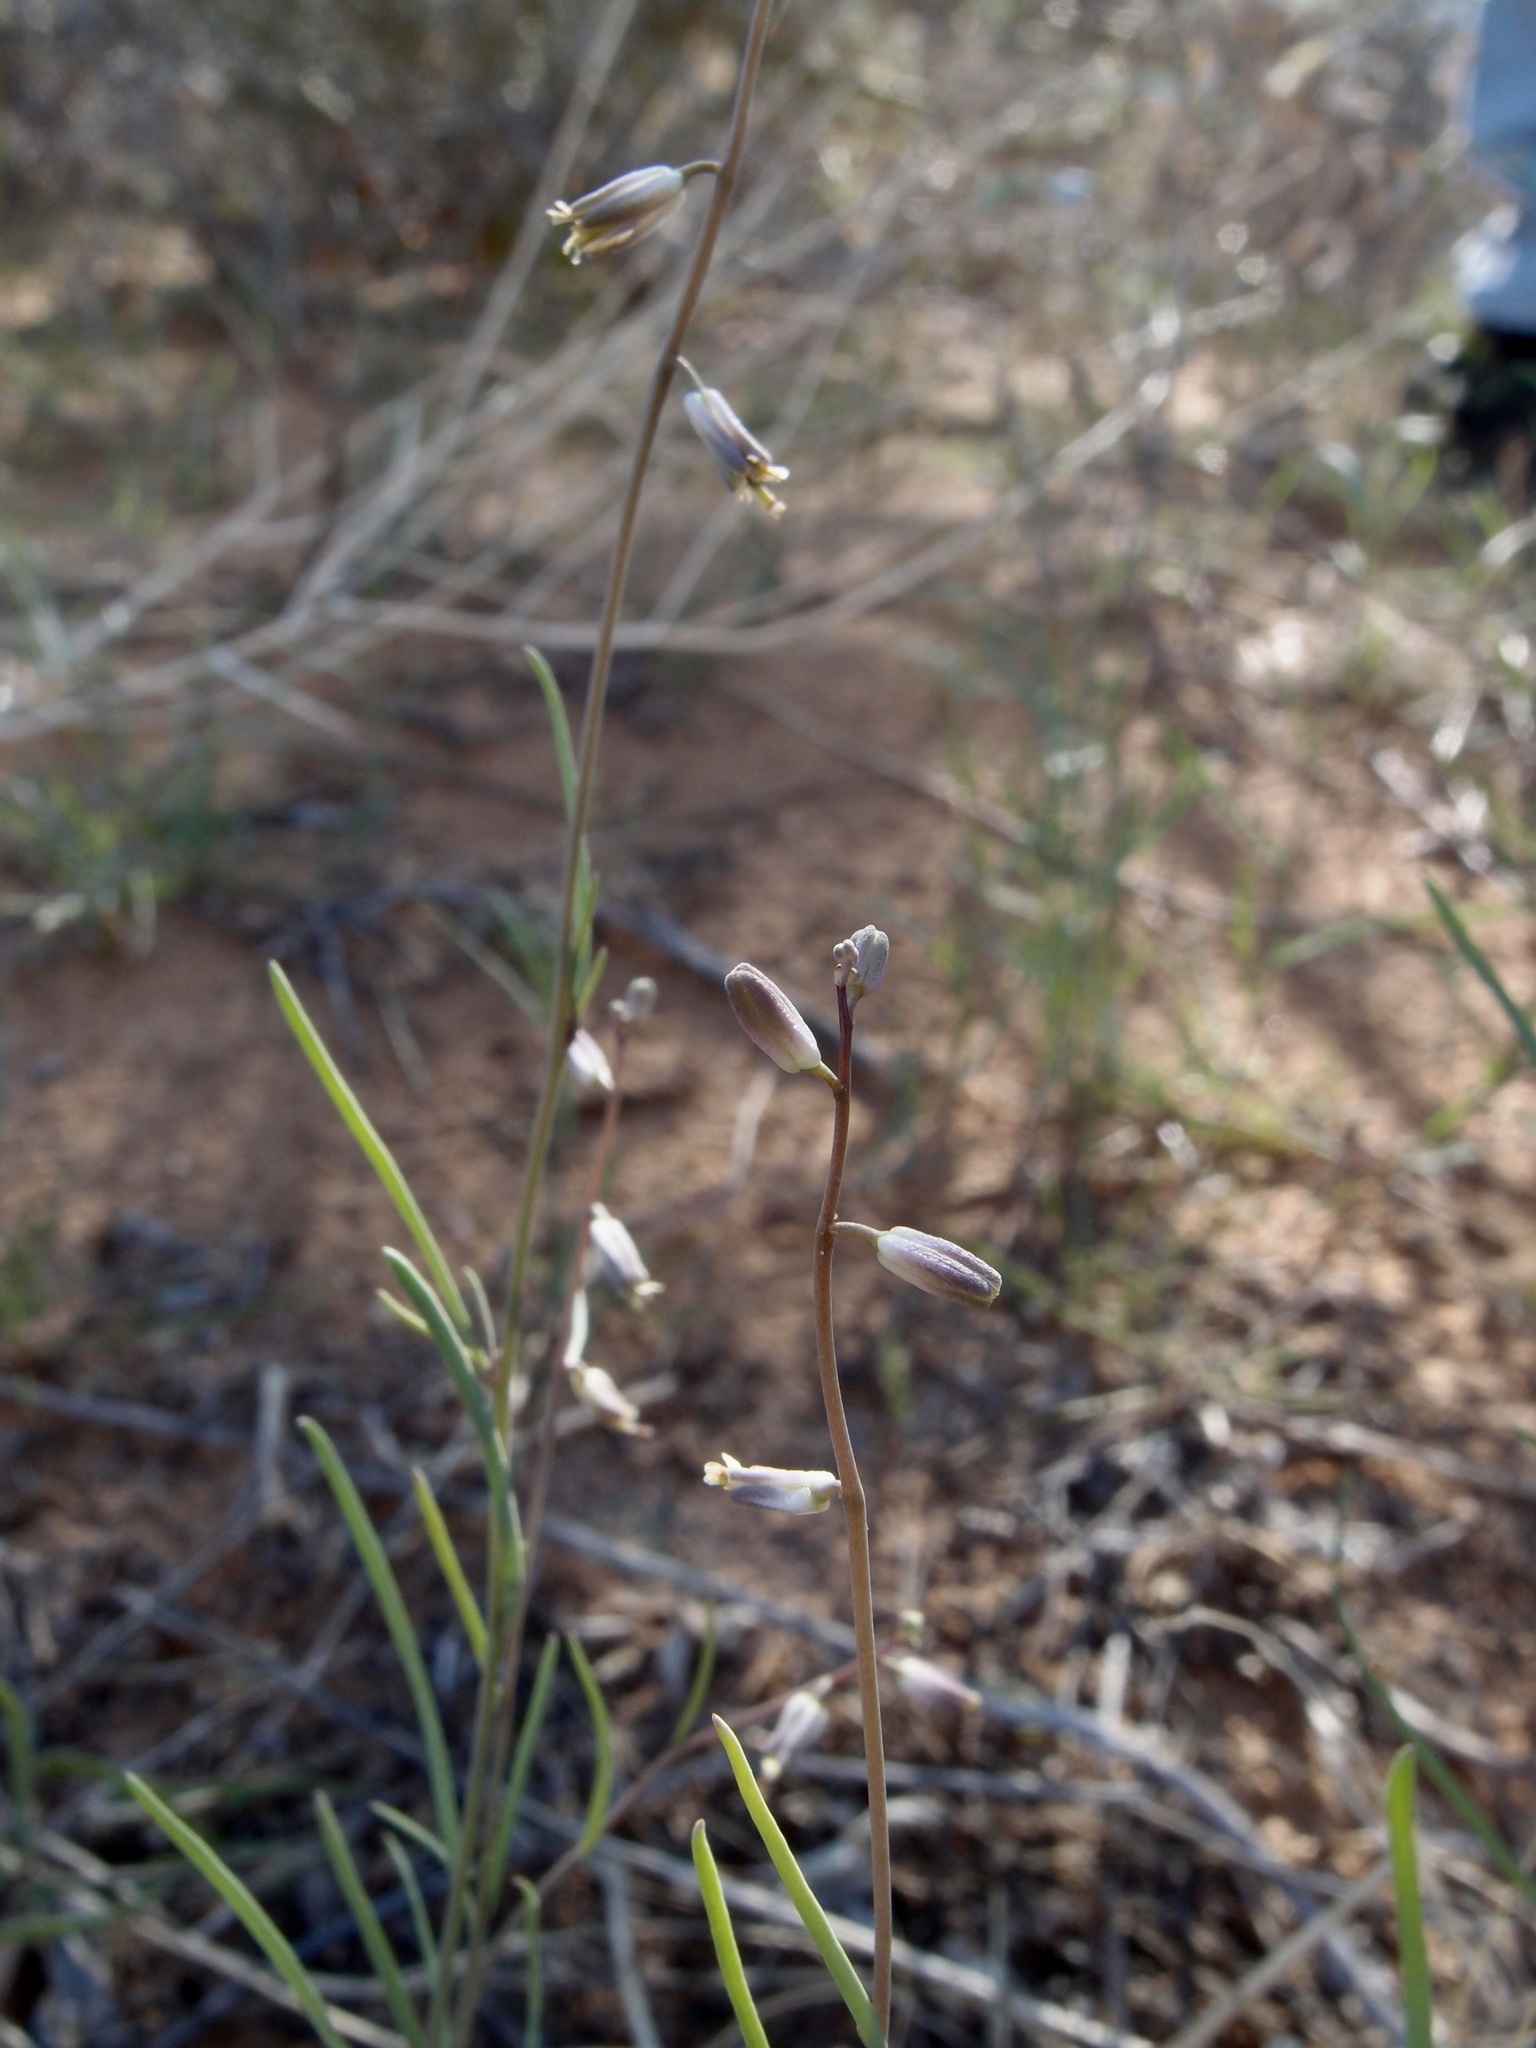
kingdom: Plantae
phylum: Tracheophyta
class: Magnoliopsida
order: Brassicales
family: Brassicaceae
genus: Streptanthus
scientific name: Streptanthus longirostris
